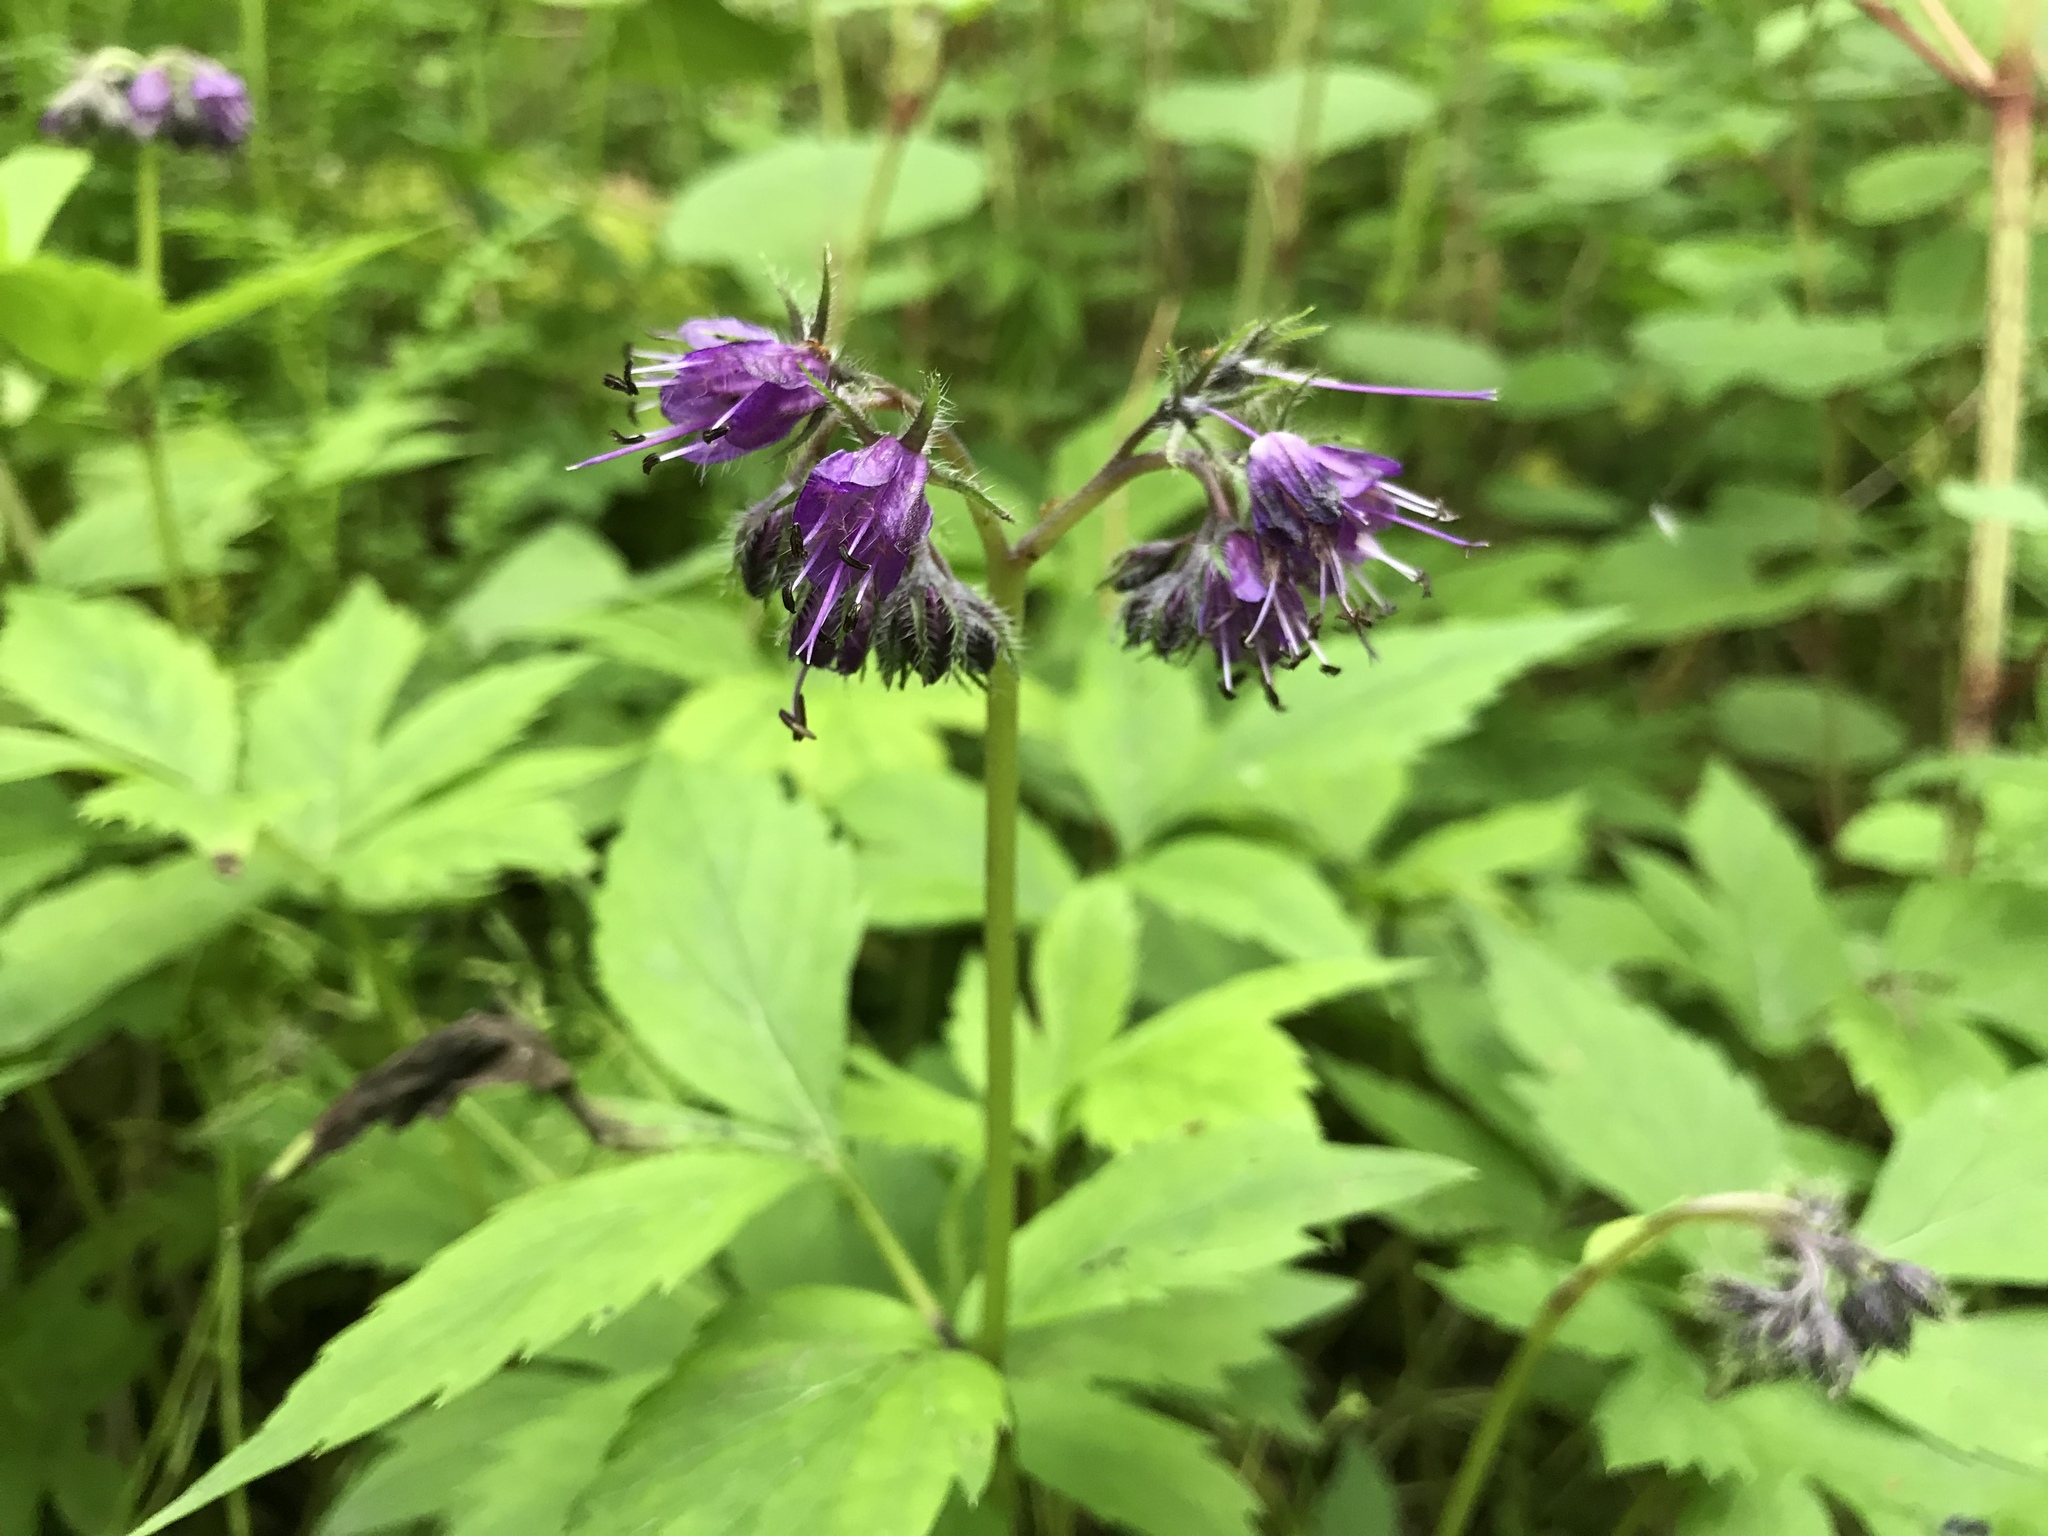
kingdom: Plantae
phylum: Tracheophyta
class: Magnoliopsida
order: Boraginales
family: Hydrophyllaceae
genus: Hydrophyllum
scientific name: Hydrophyllum virginianum
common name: Virginia waterleaf
